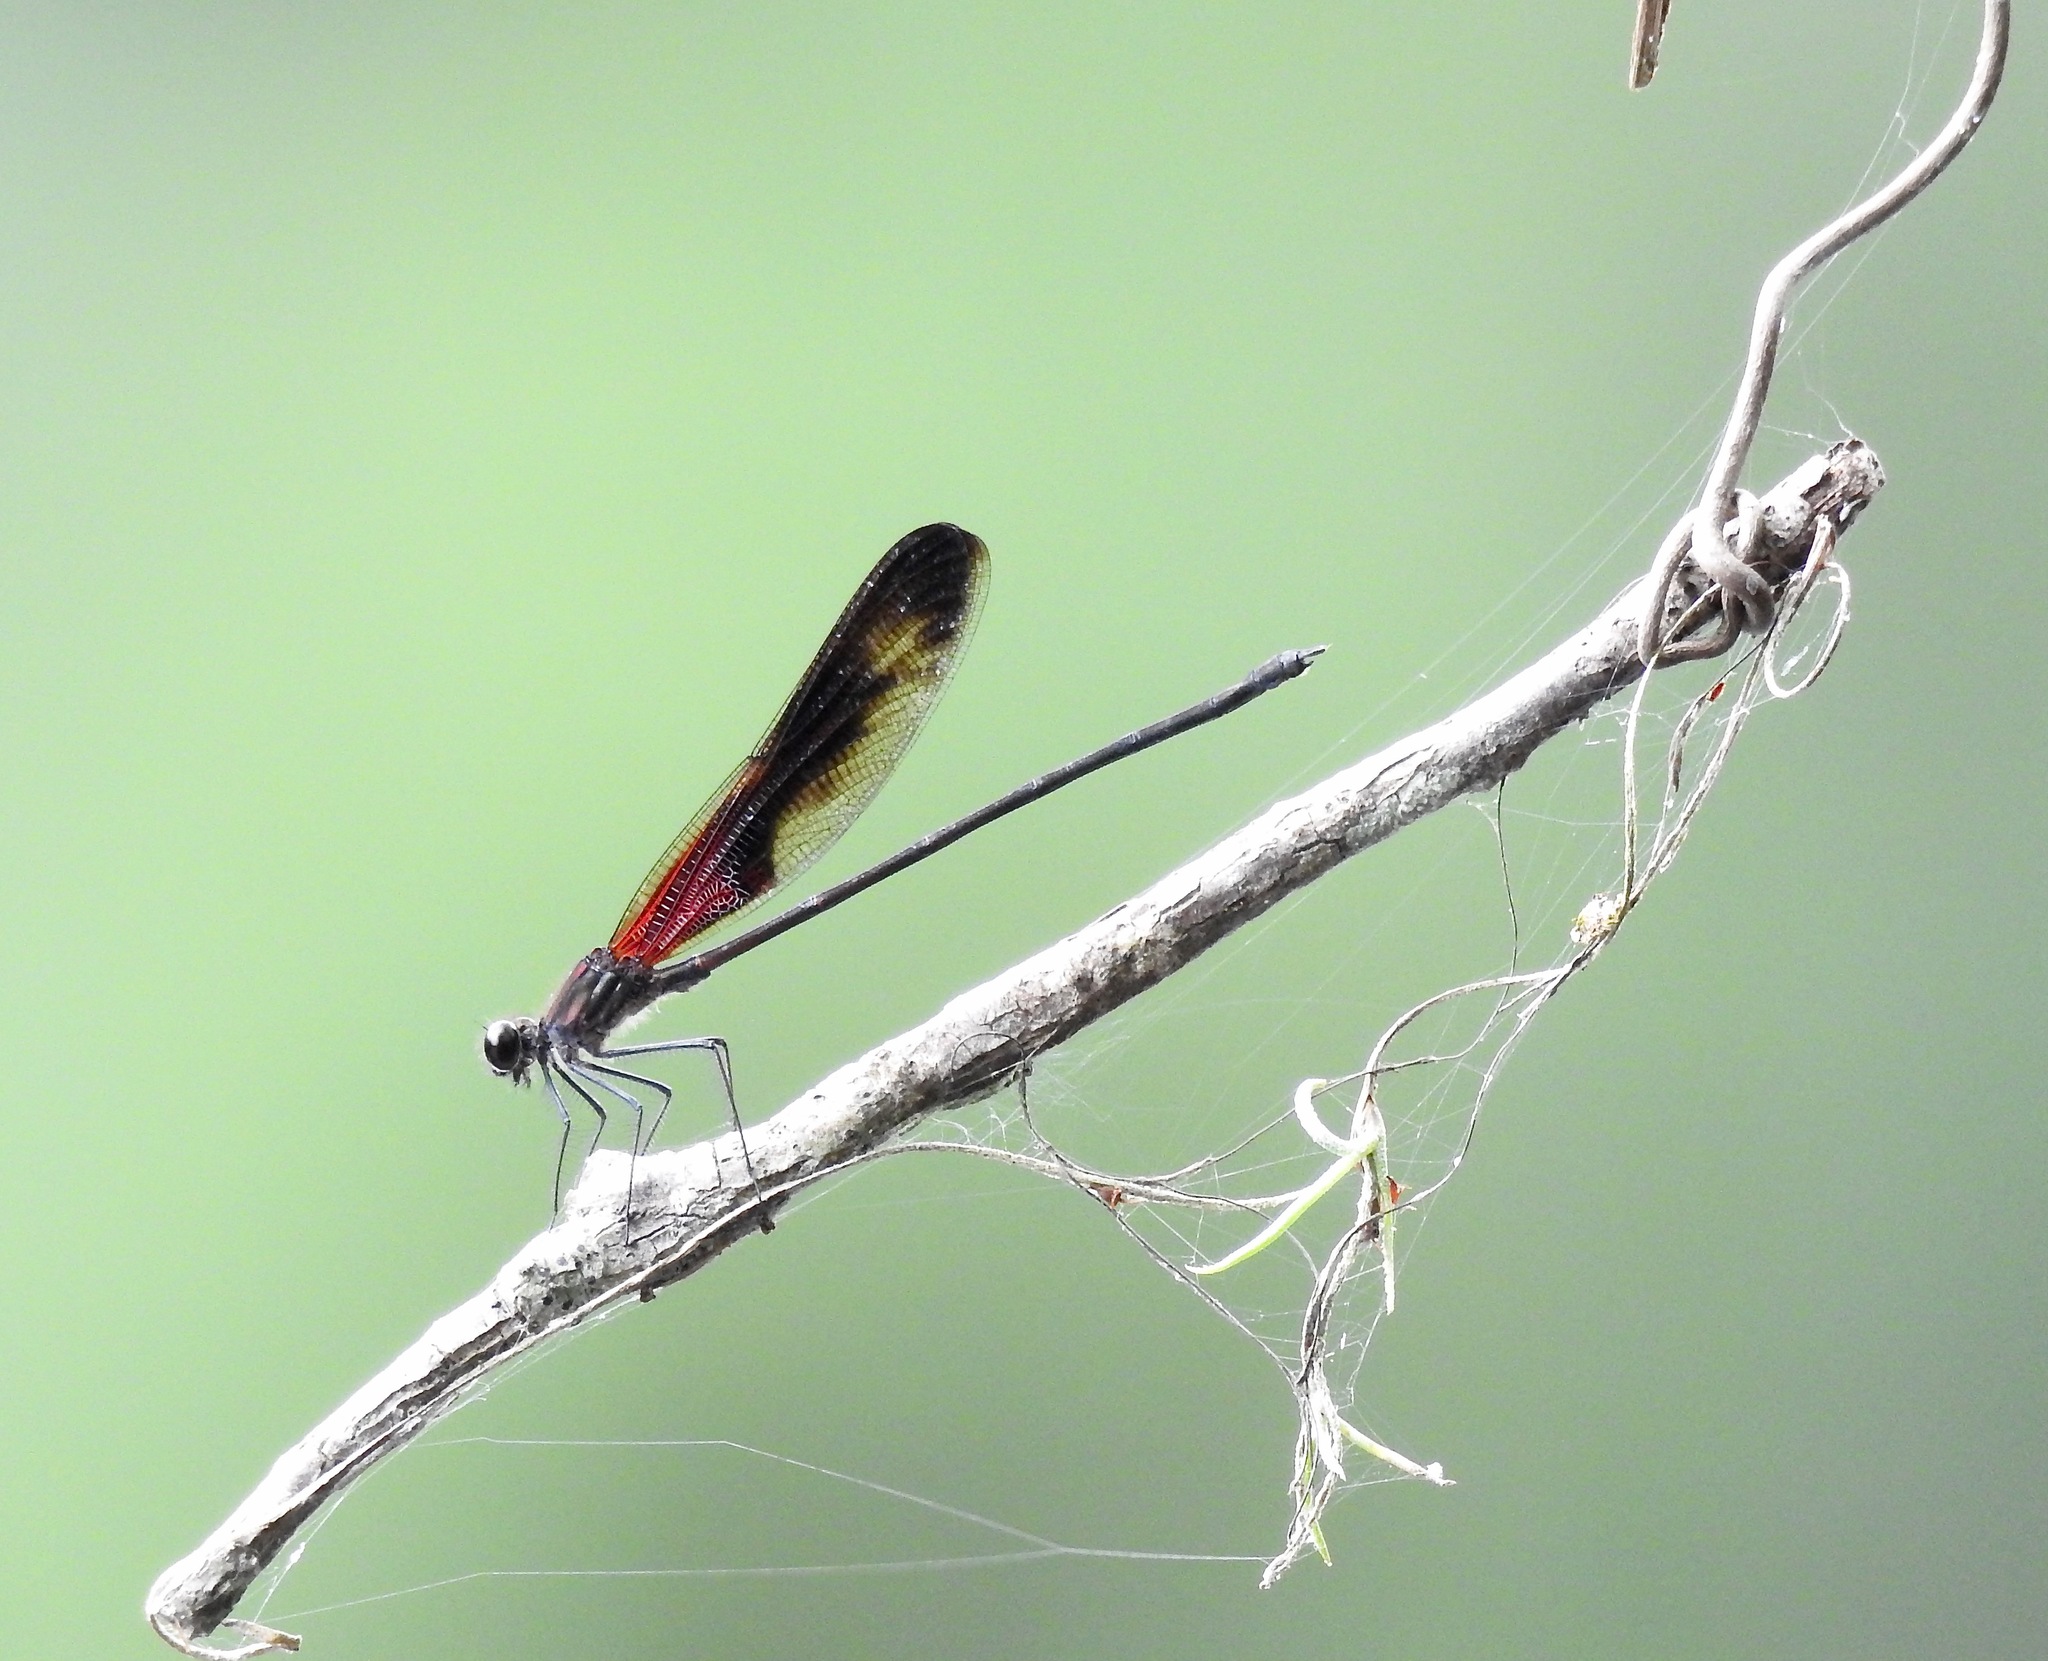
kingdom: Animalia
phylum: Arthropoda
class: Insecta
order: Odonata
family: Calopterygidae
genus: Hetaerina
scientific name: Hetaerina titia
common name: Smoky rubyspot
